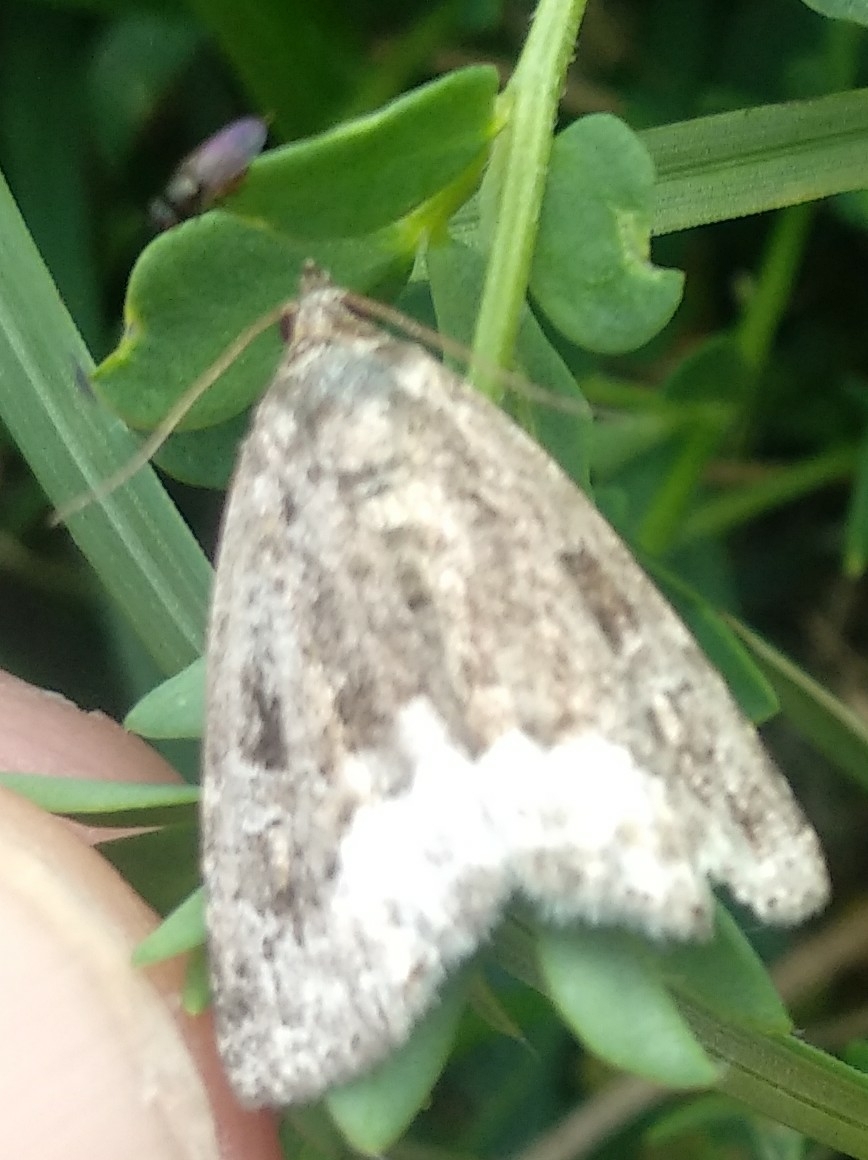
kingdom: Animalia
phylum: Arthropoda
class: Insecta
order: Lepidoptera
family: Noctuidae
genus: Deltote
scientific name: Deltote pygarga
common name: Marbled white spot
